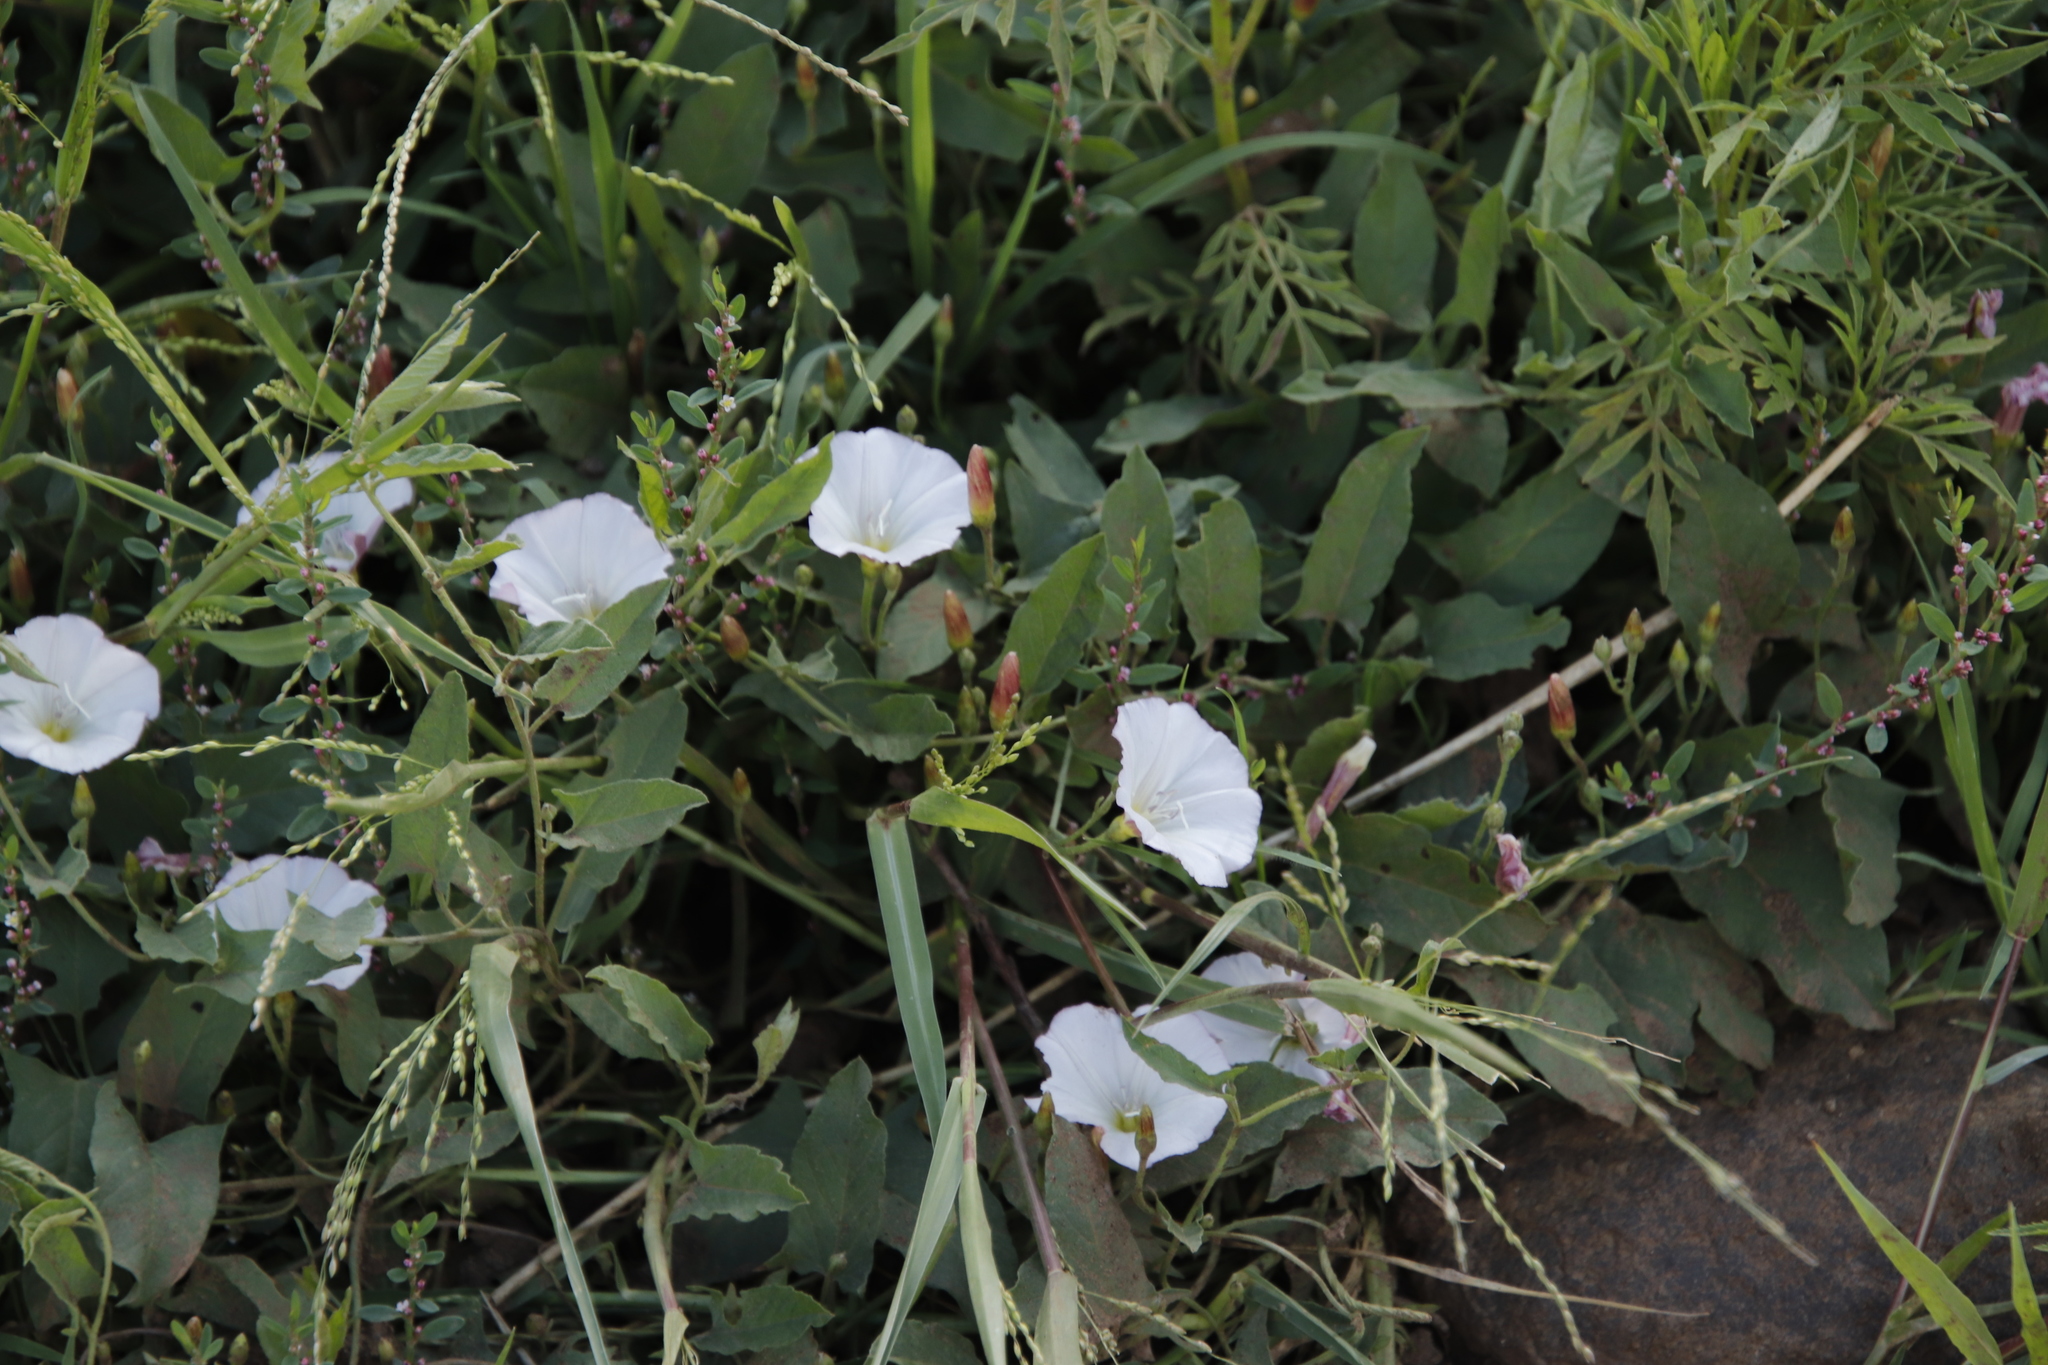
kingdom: Plantae
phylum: Tracheophyta
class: Magnoliopsida
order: Solanales
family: Convolvulaceae
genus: Convolvulus
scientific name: Convolvulus arvensis
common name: Field bindweed
